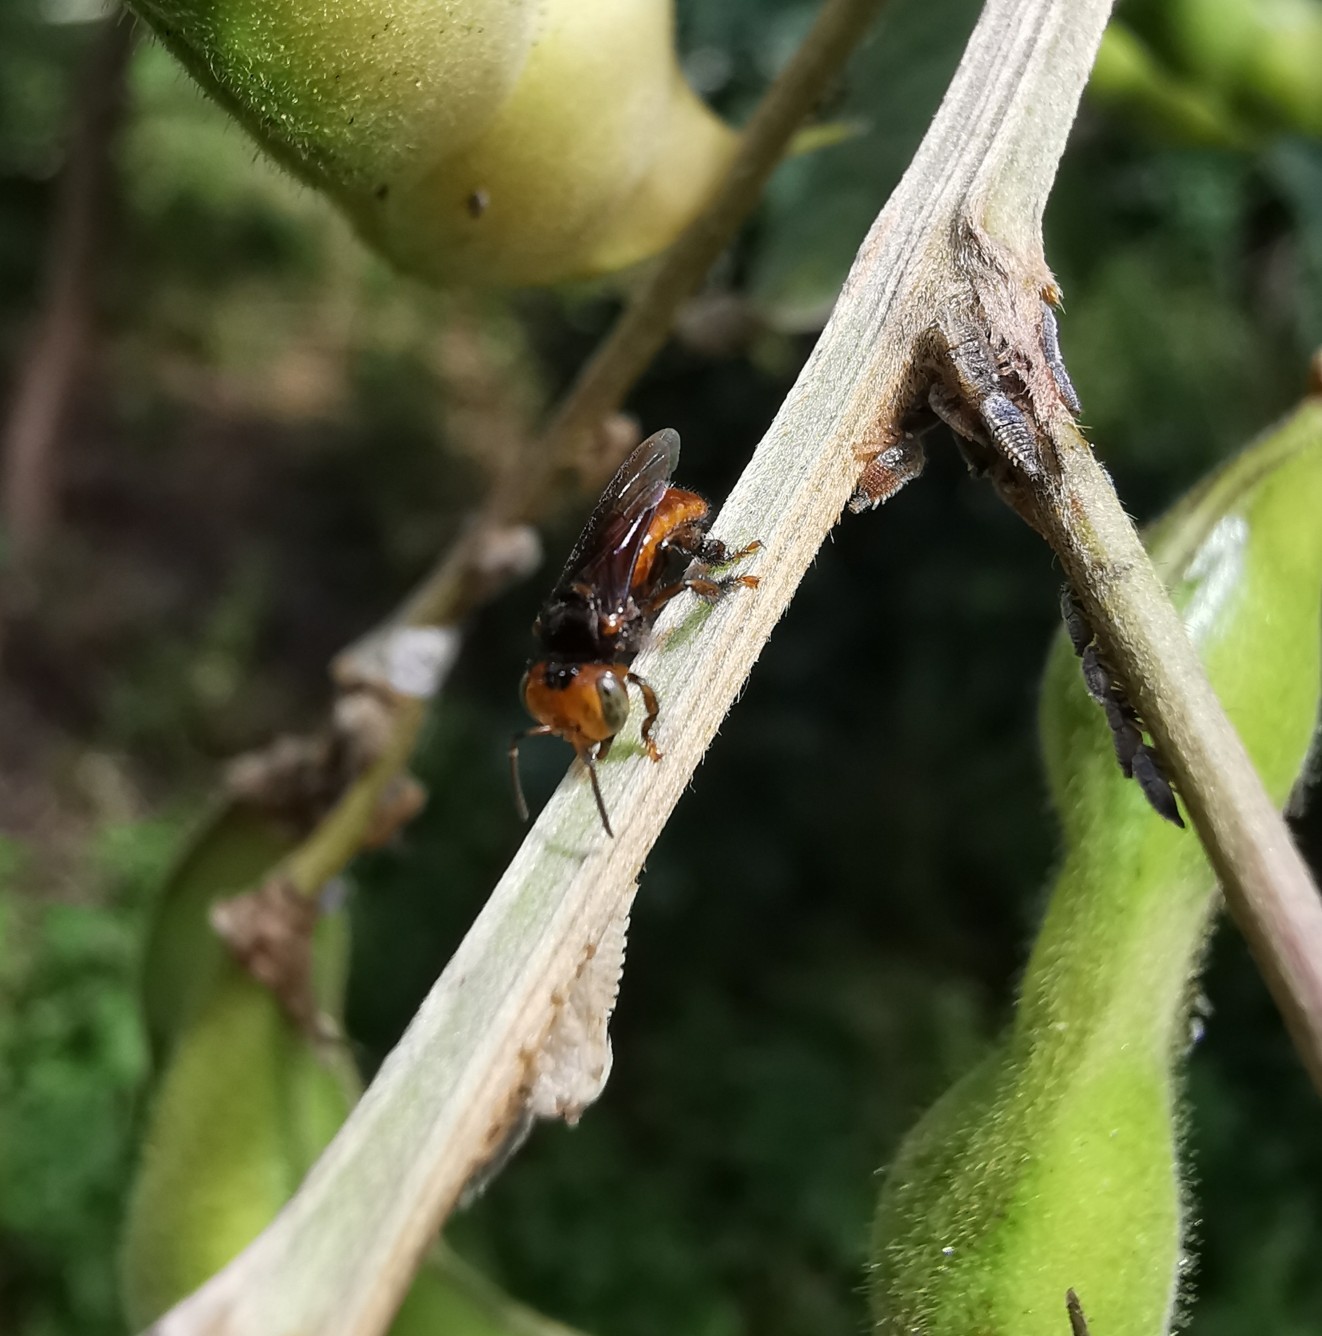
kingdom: Animalia
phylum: Arthropoda
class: Insecta
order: Hymenoptera
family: Apidae
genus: Oxytrigona
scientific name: Oxytrigona tataira
